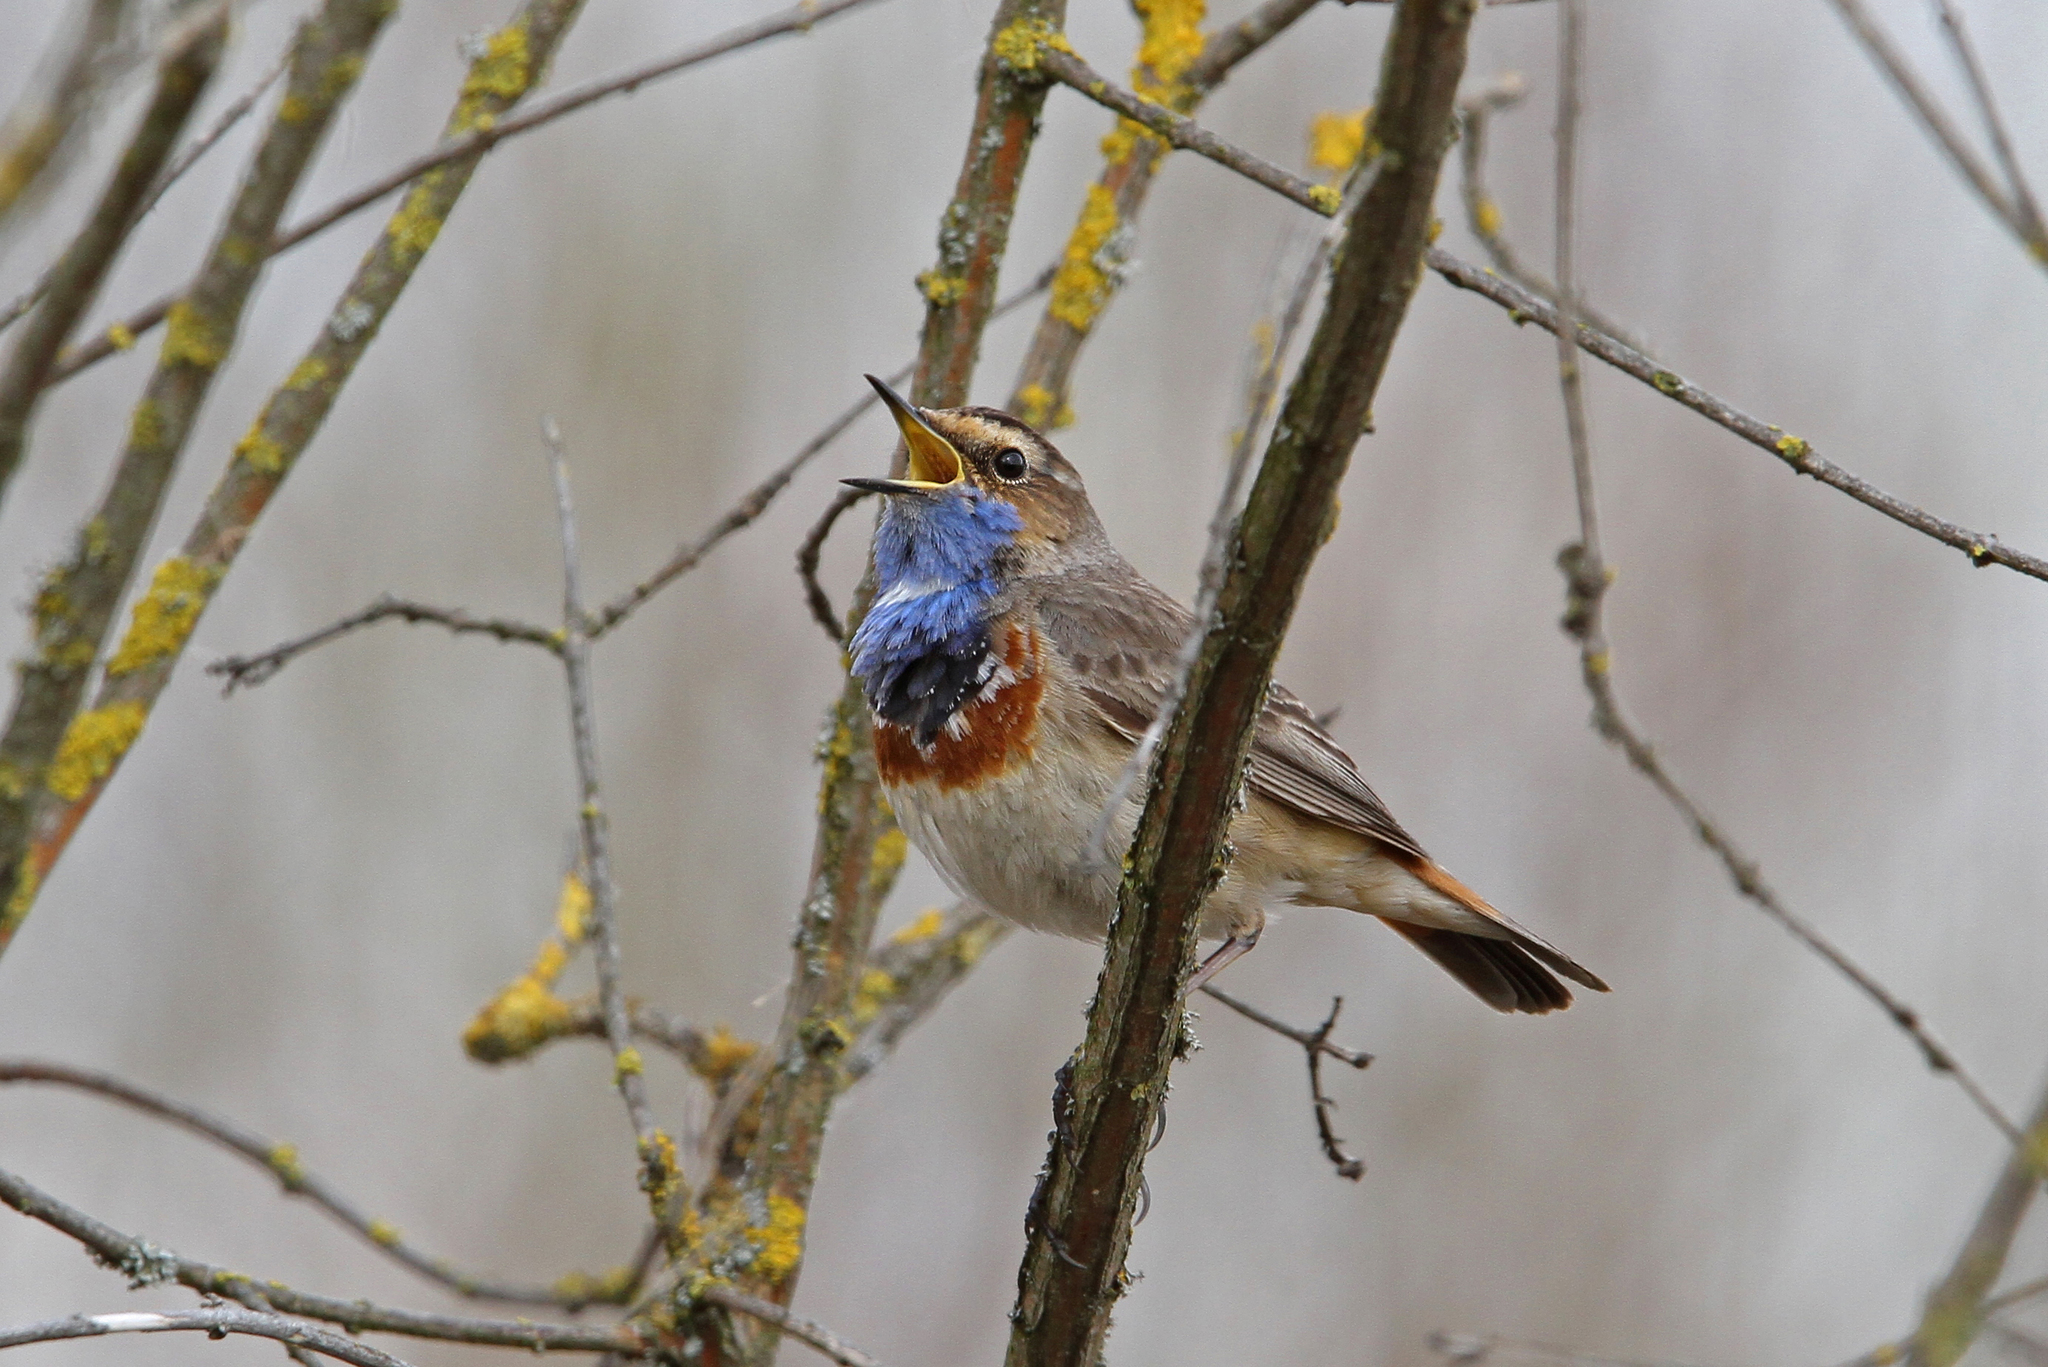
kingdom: Animalia
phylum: Chordata
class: Aves
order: Passeriformes
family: Muscicapidae
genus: Luscinia
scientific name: Luscinia svecica
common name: Bluethroat
